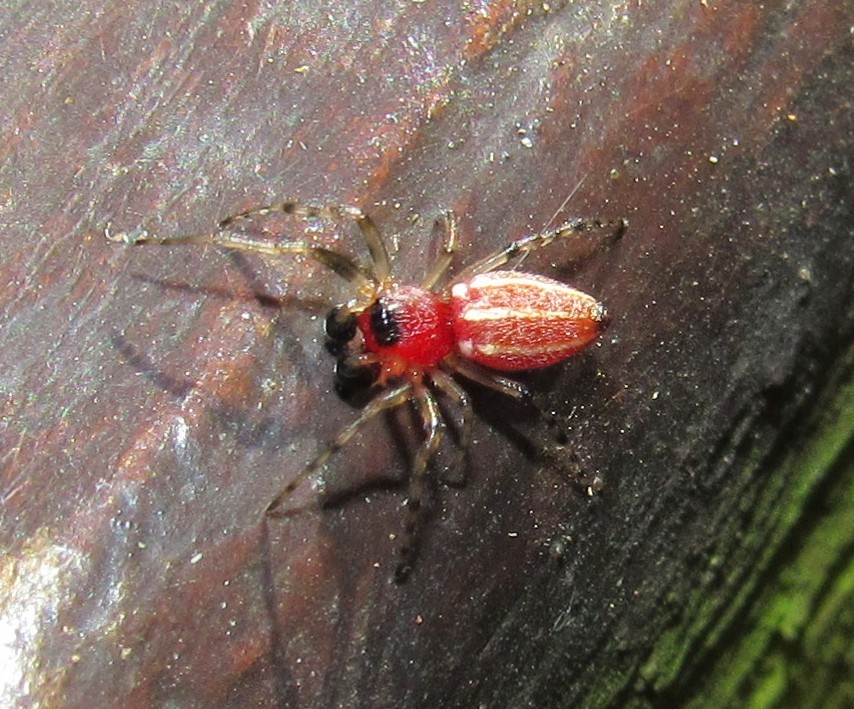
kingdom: Animalia
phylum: Arthropoda
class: Arachnida
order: Araneae
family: Araneidae
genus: Alpaida
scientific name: Alpaida leucogramma
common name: Orb weavers
